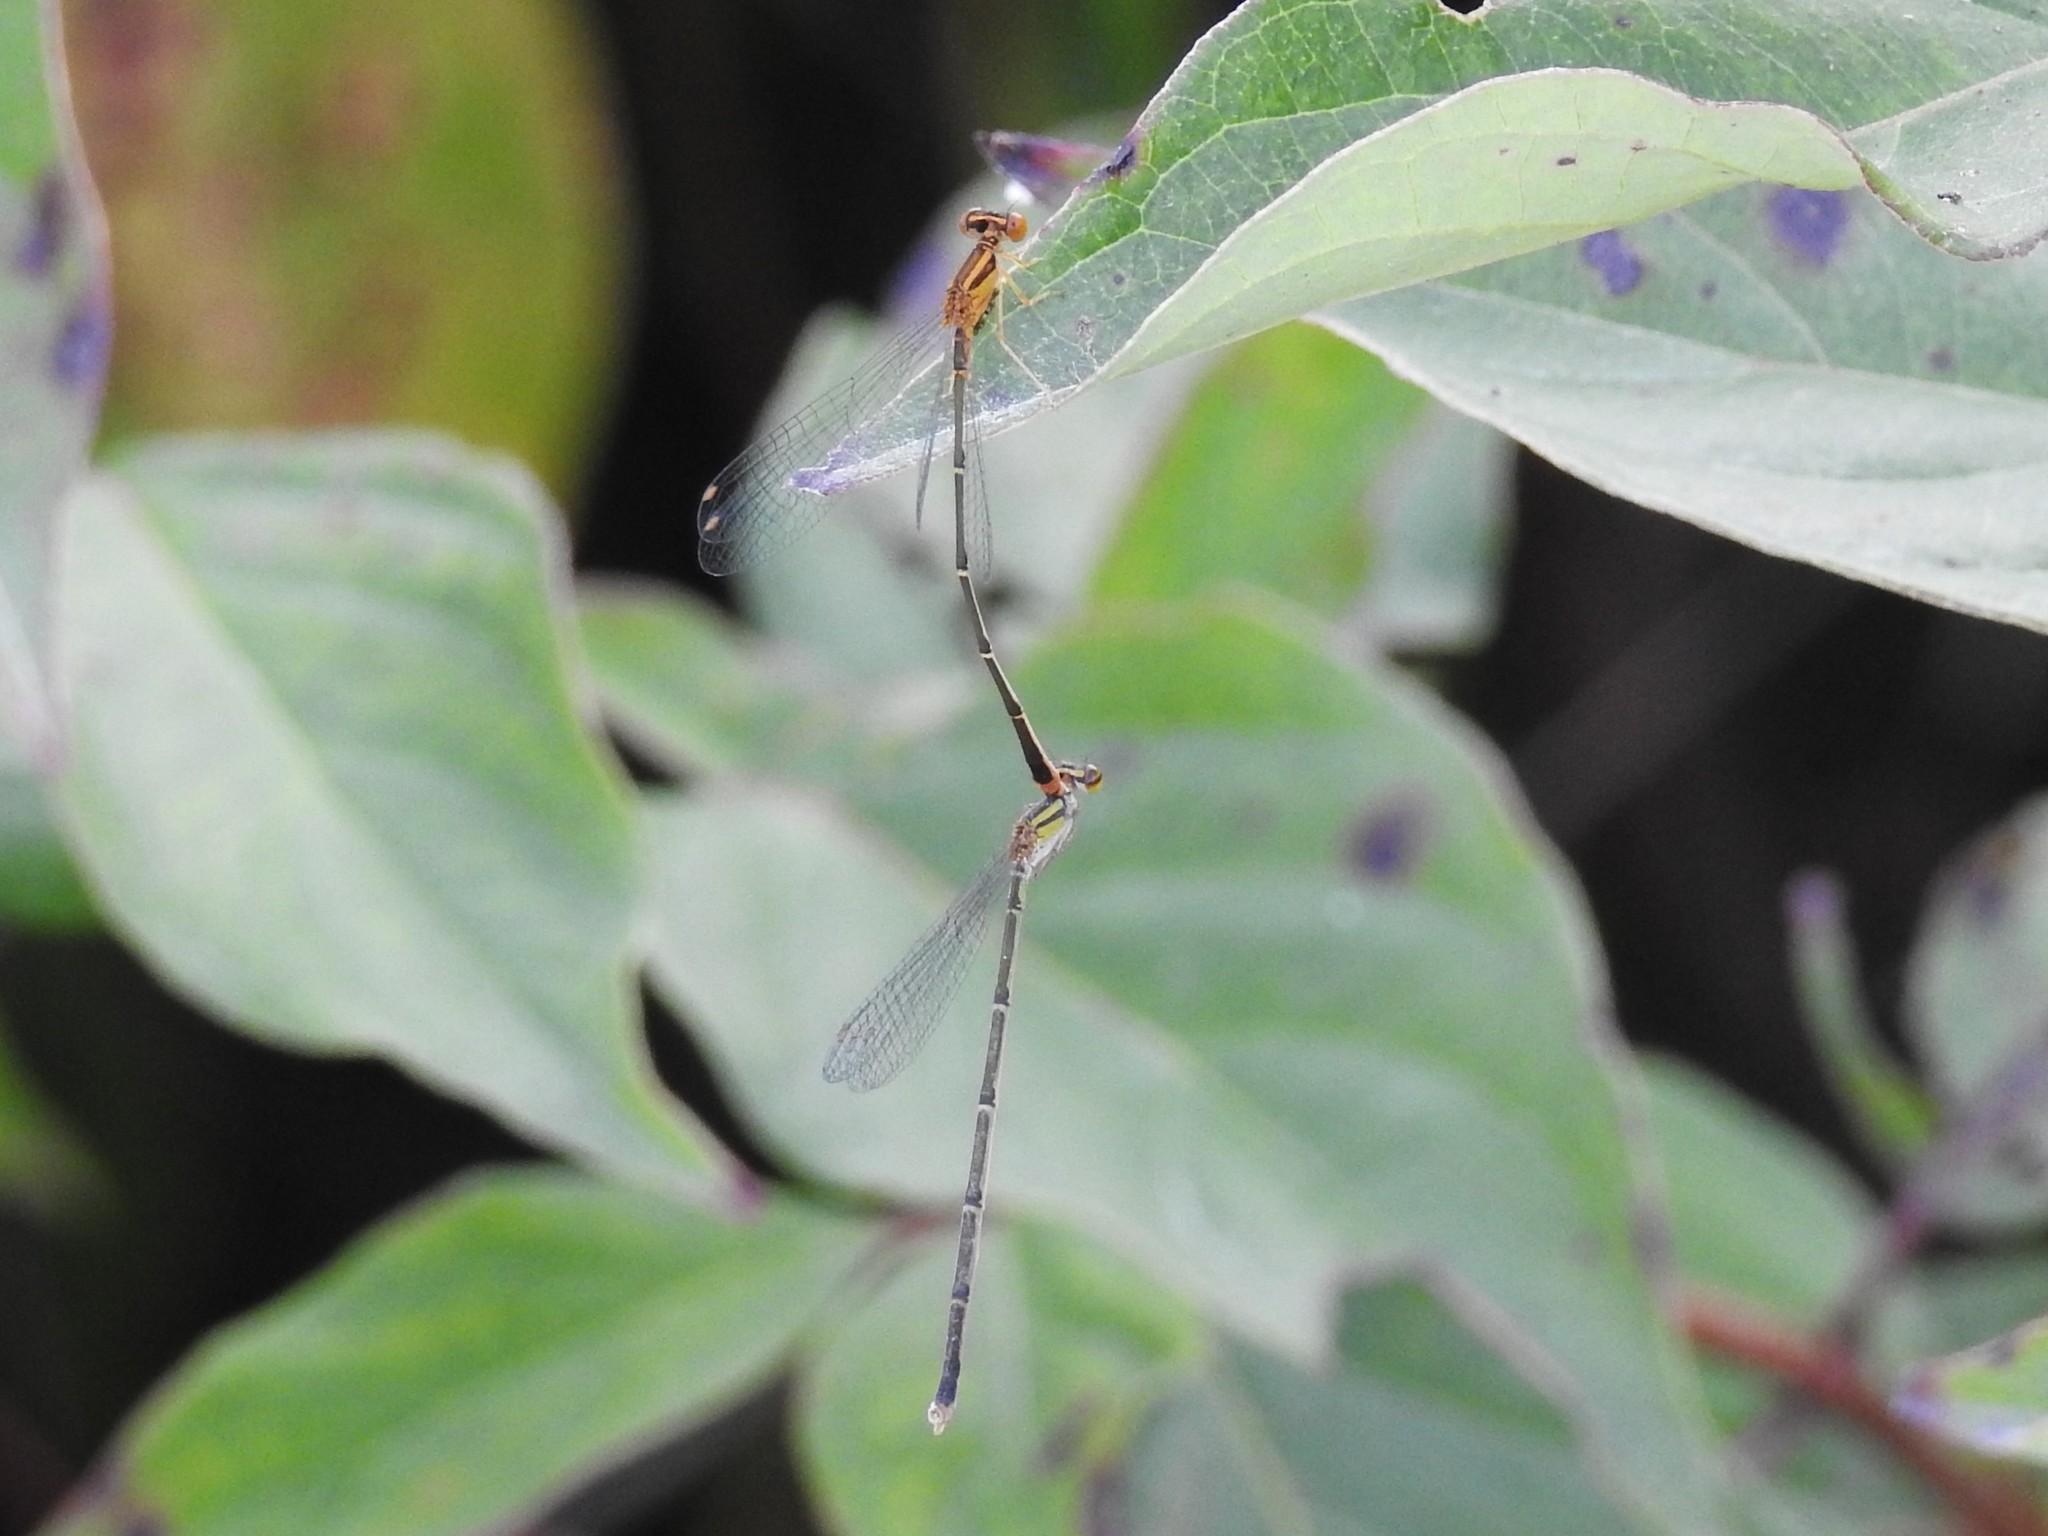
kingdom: Animalia
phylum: Arthropoda
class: Insecta
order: Odonata
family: Coenagrionidae
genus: Enallagma
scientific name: Enallagma signatum
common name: Orange bluet
